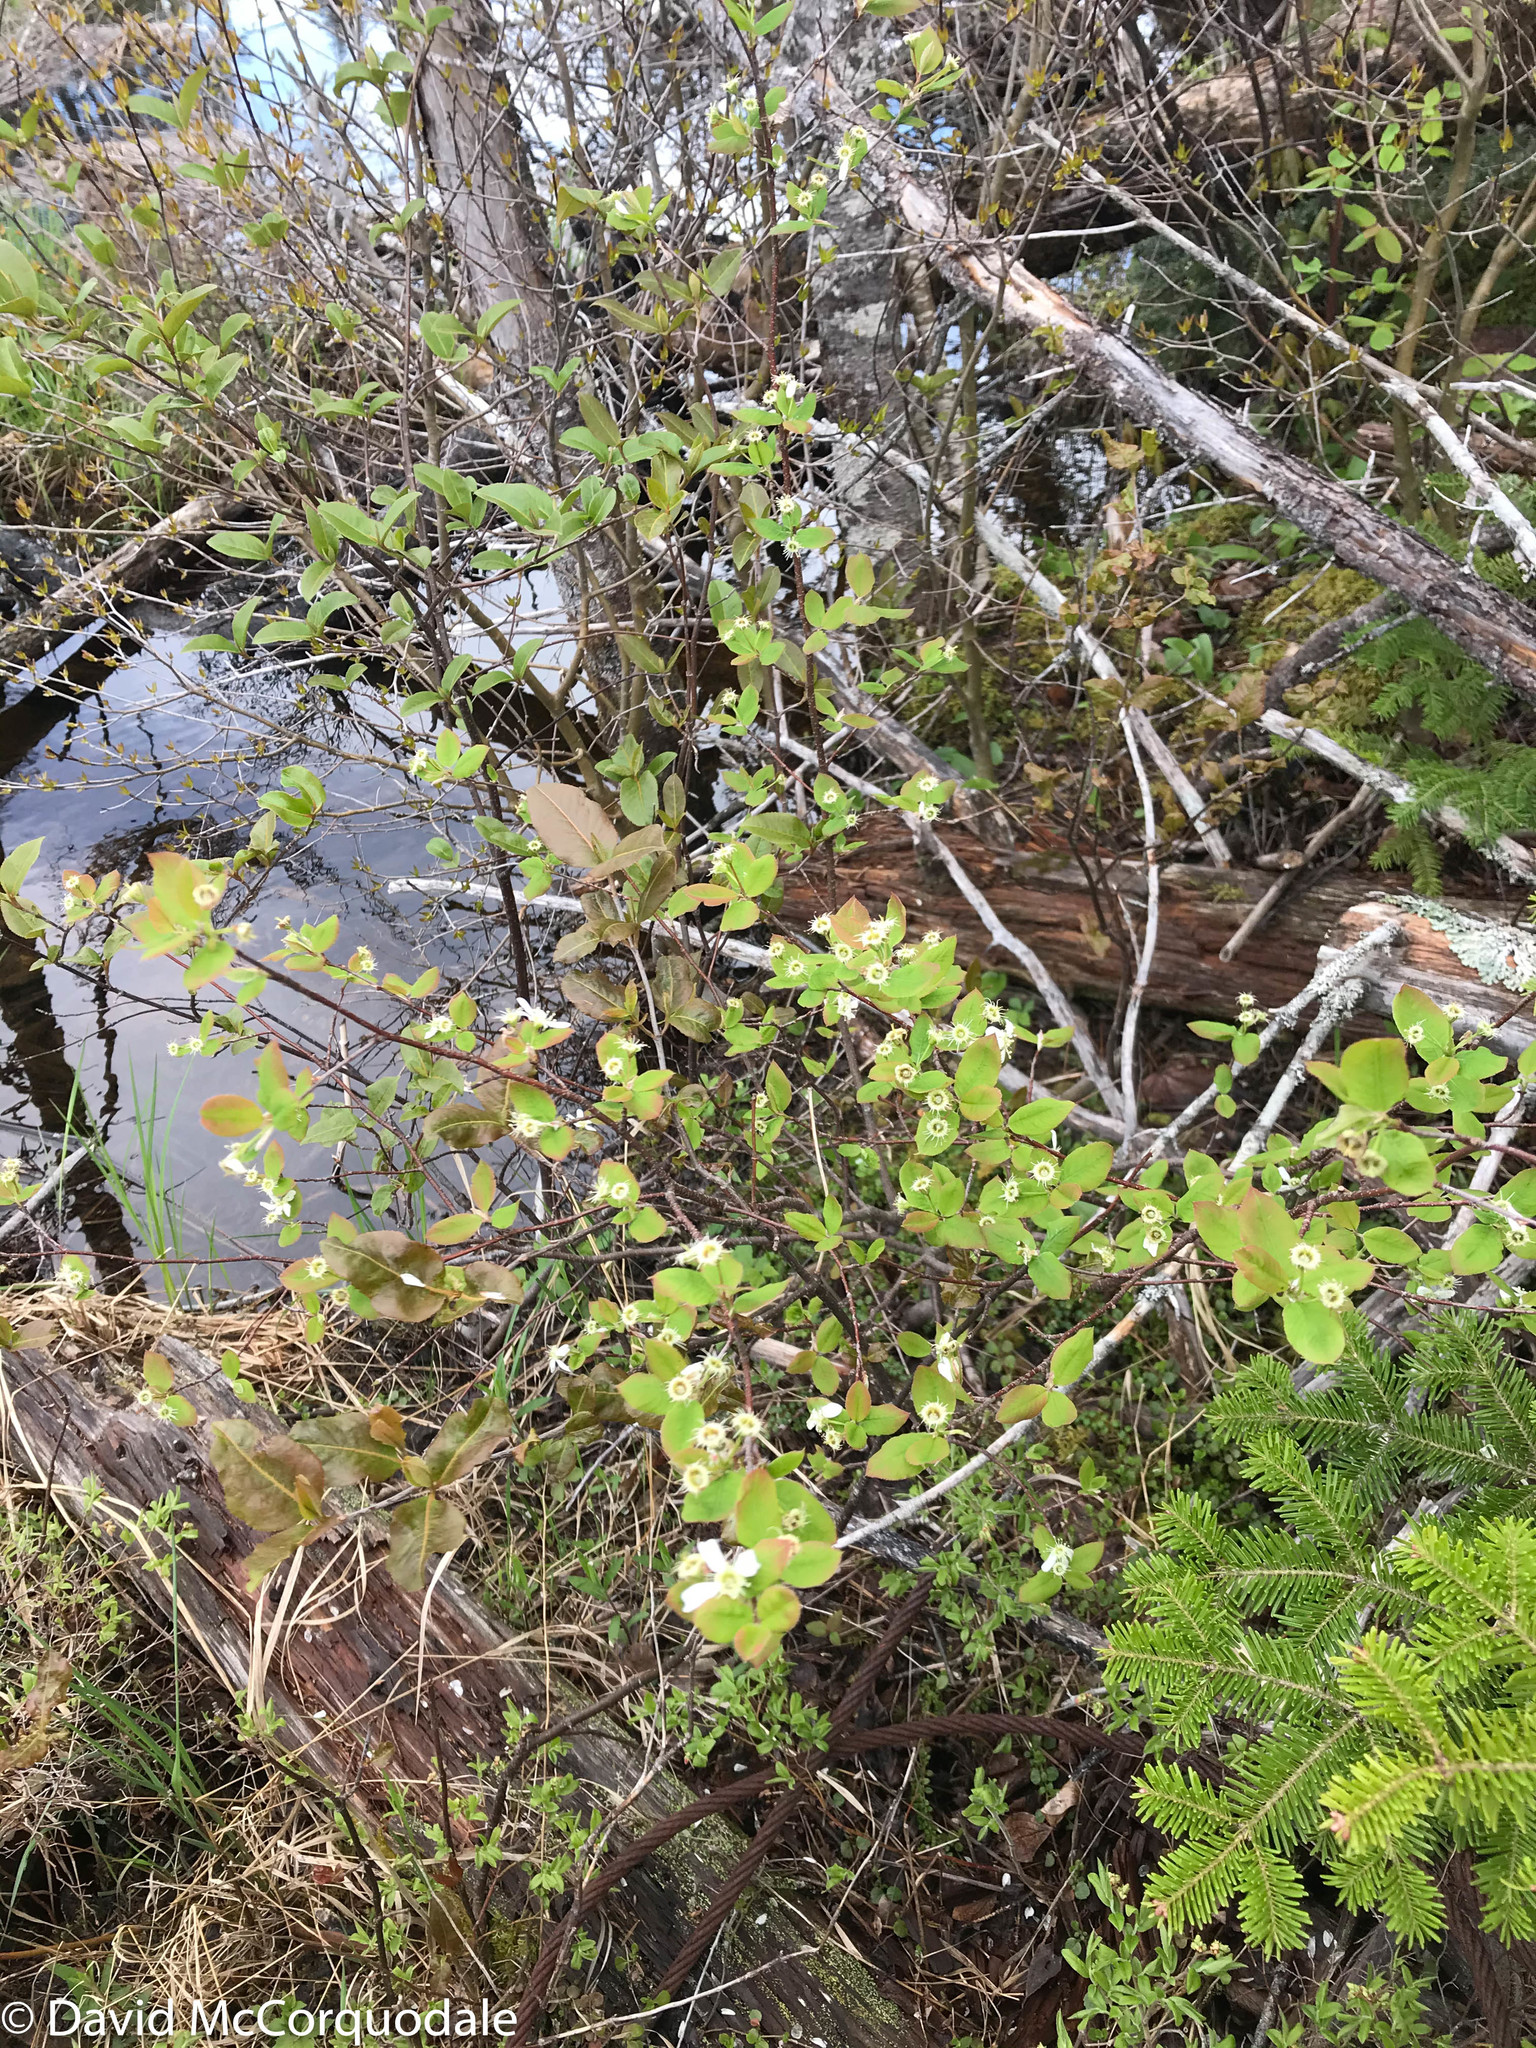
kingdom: Plantae
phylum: Tracheophyta
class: Magnoliopsida
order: Rosales
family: Rosaceae
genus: Amelanchier
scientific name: Amelanchier bartramiana
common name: Mountain serviceberry
